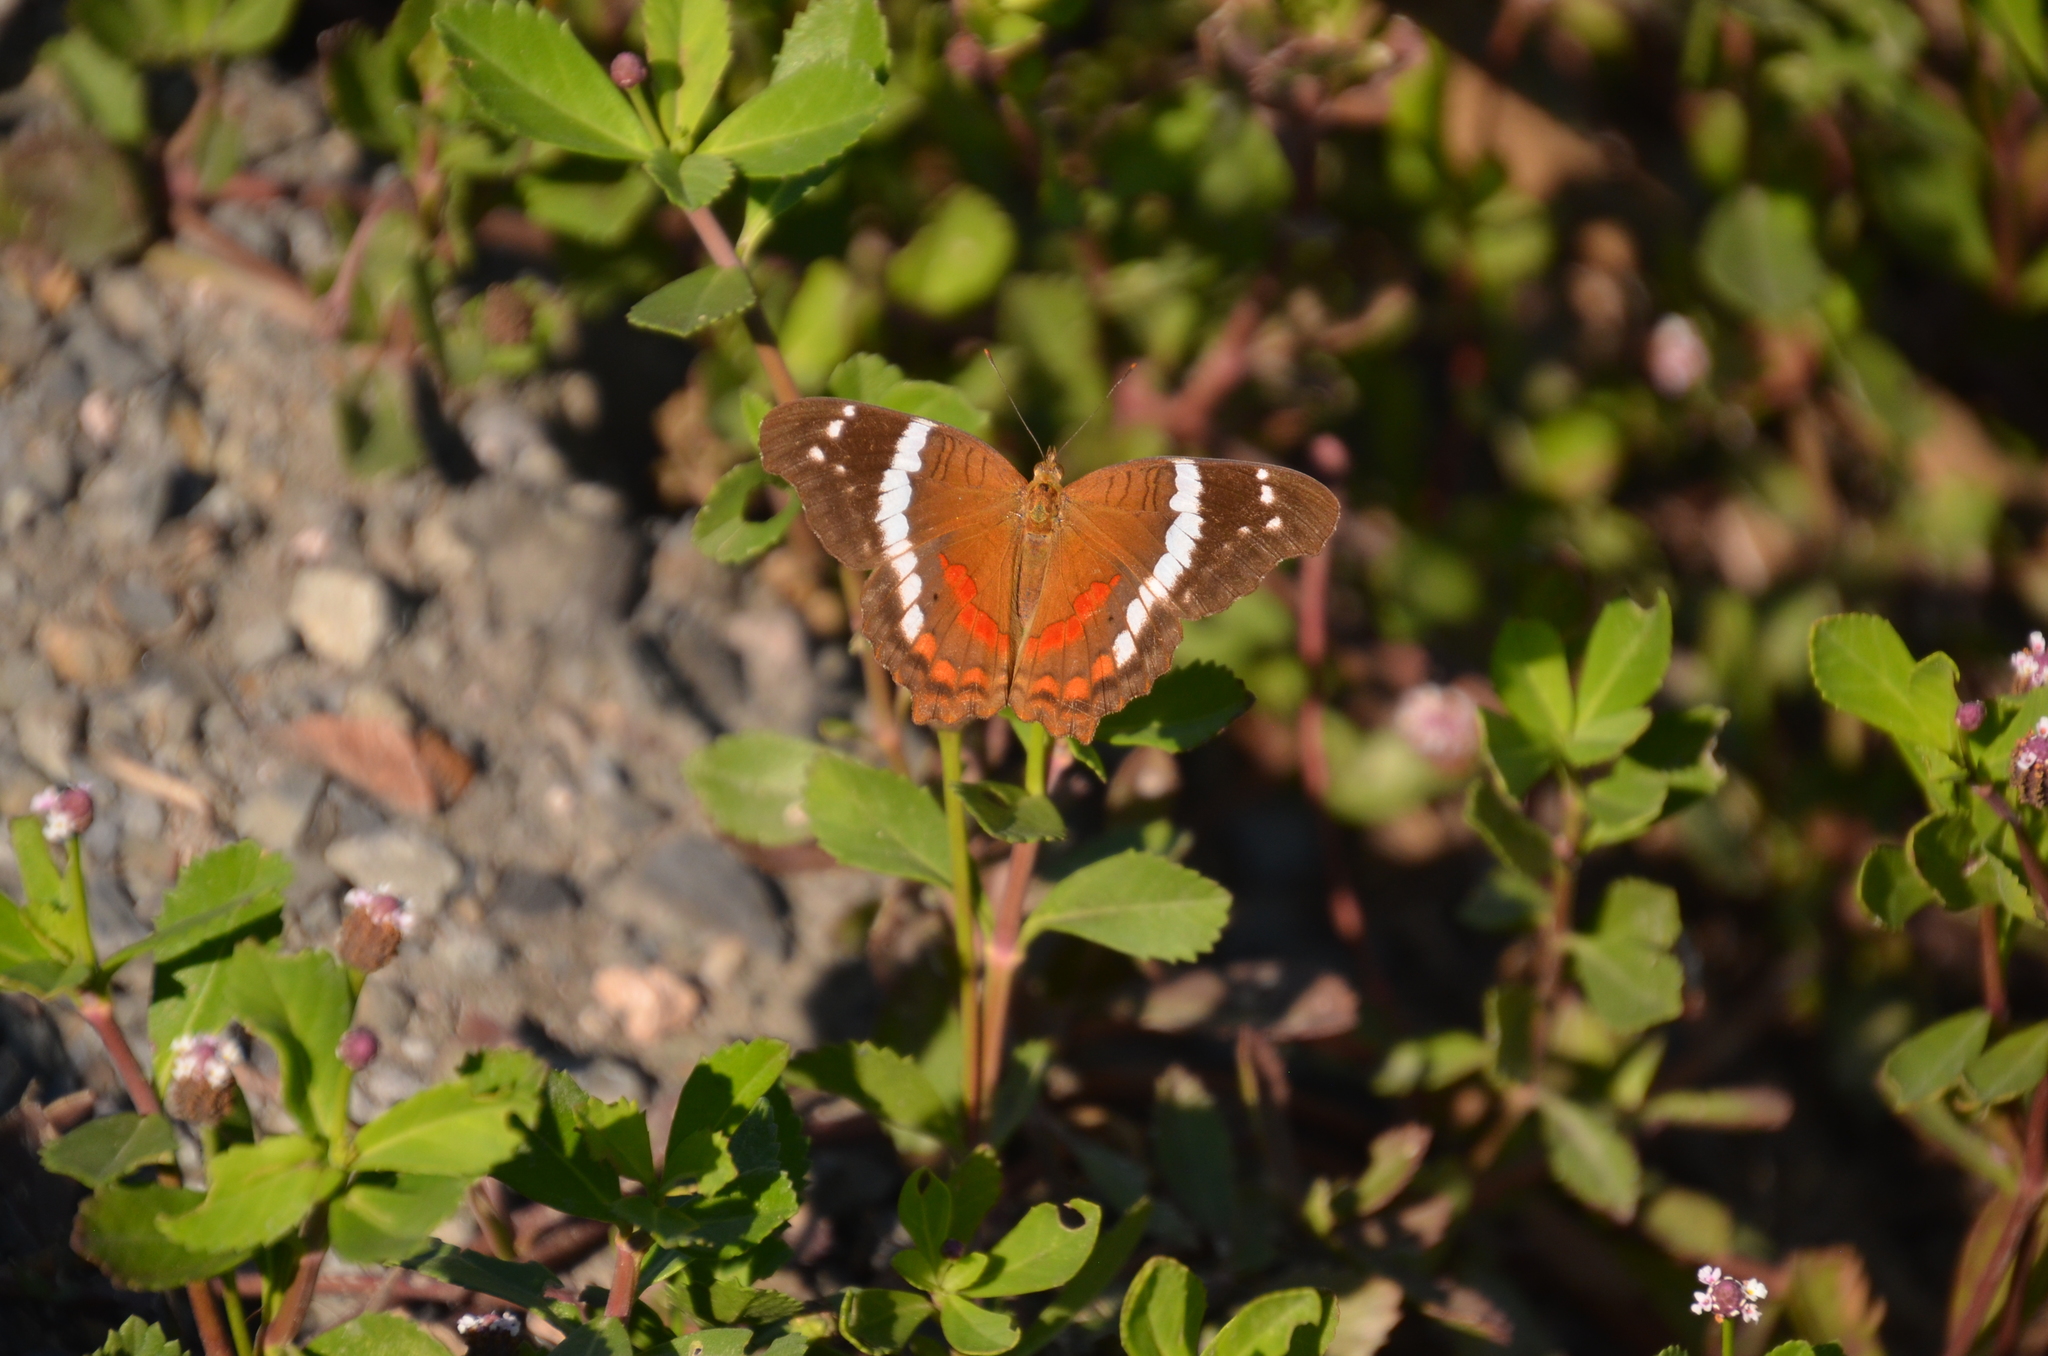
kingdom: Animalia
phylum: Arthropoda
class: Insecta
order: Lepidoptera
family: Nymphalidae
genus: Anartia
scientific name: Anartia fatima
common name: Banded peacock
